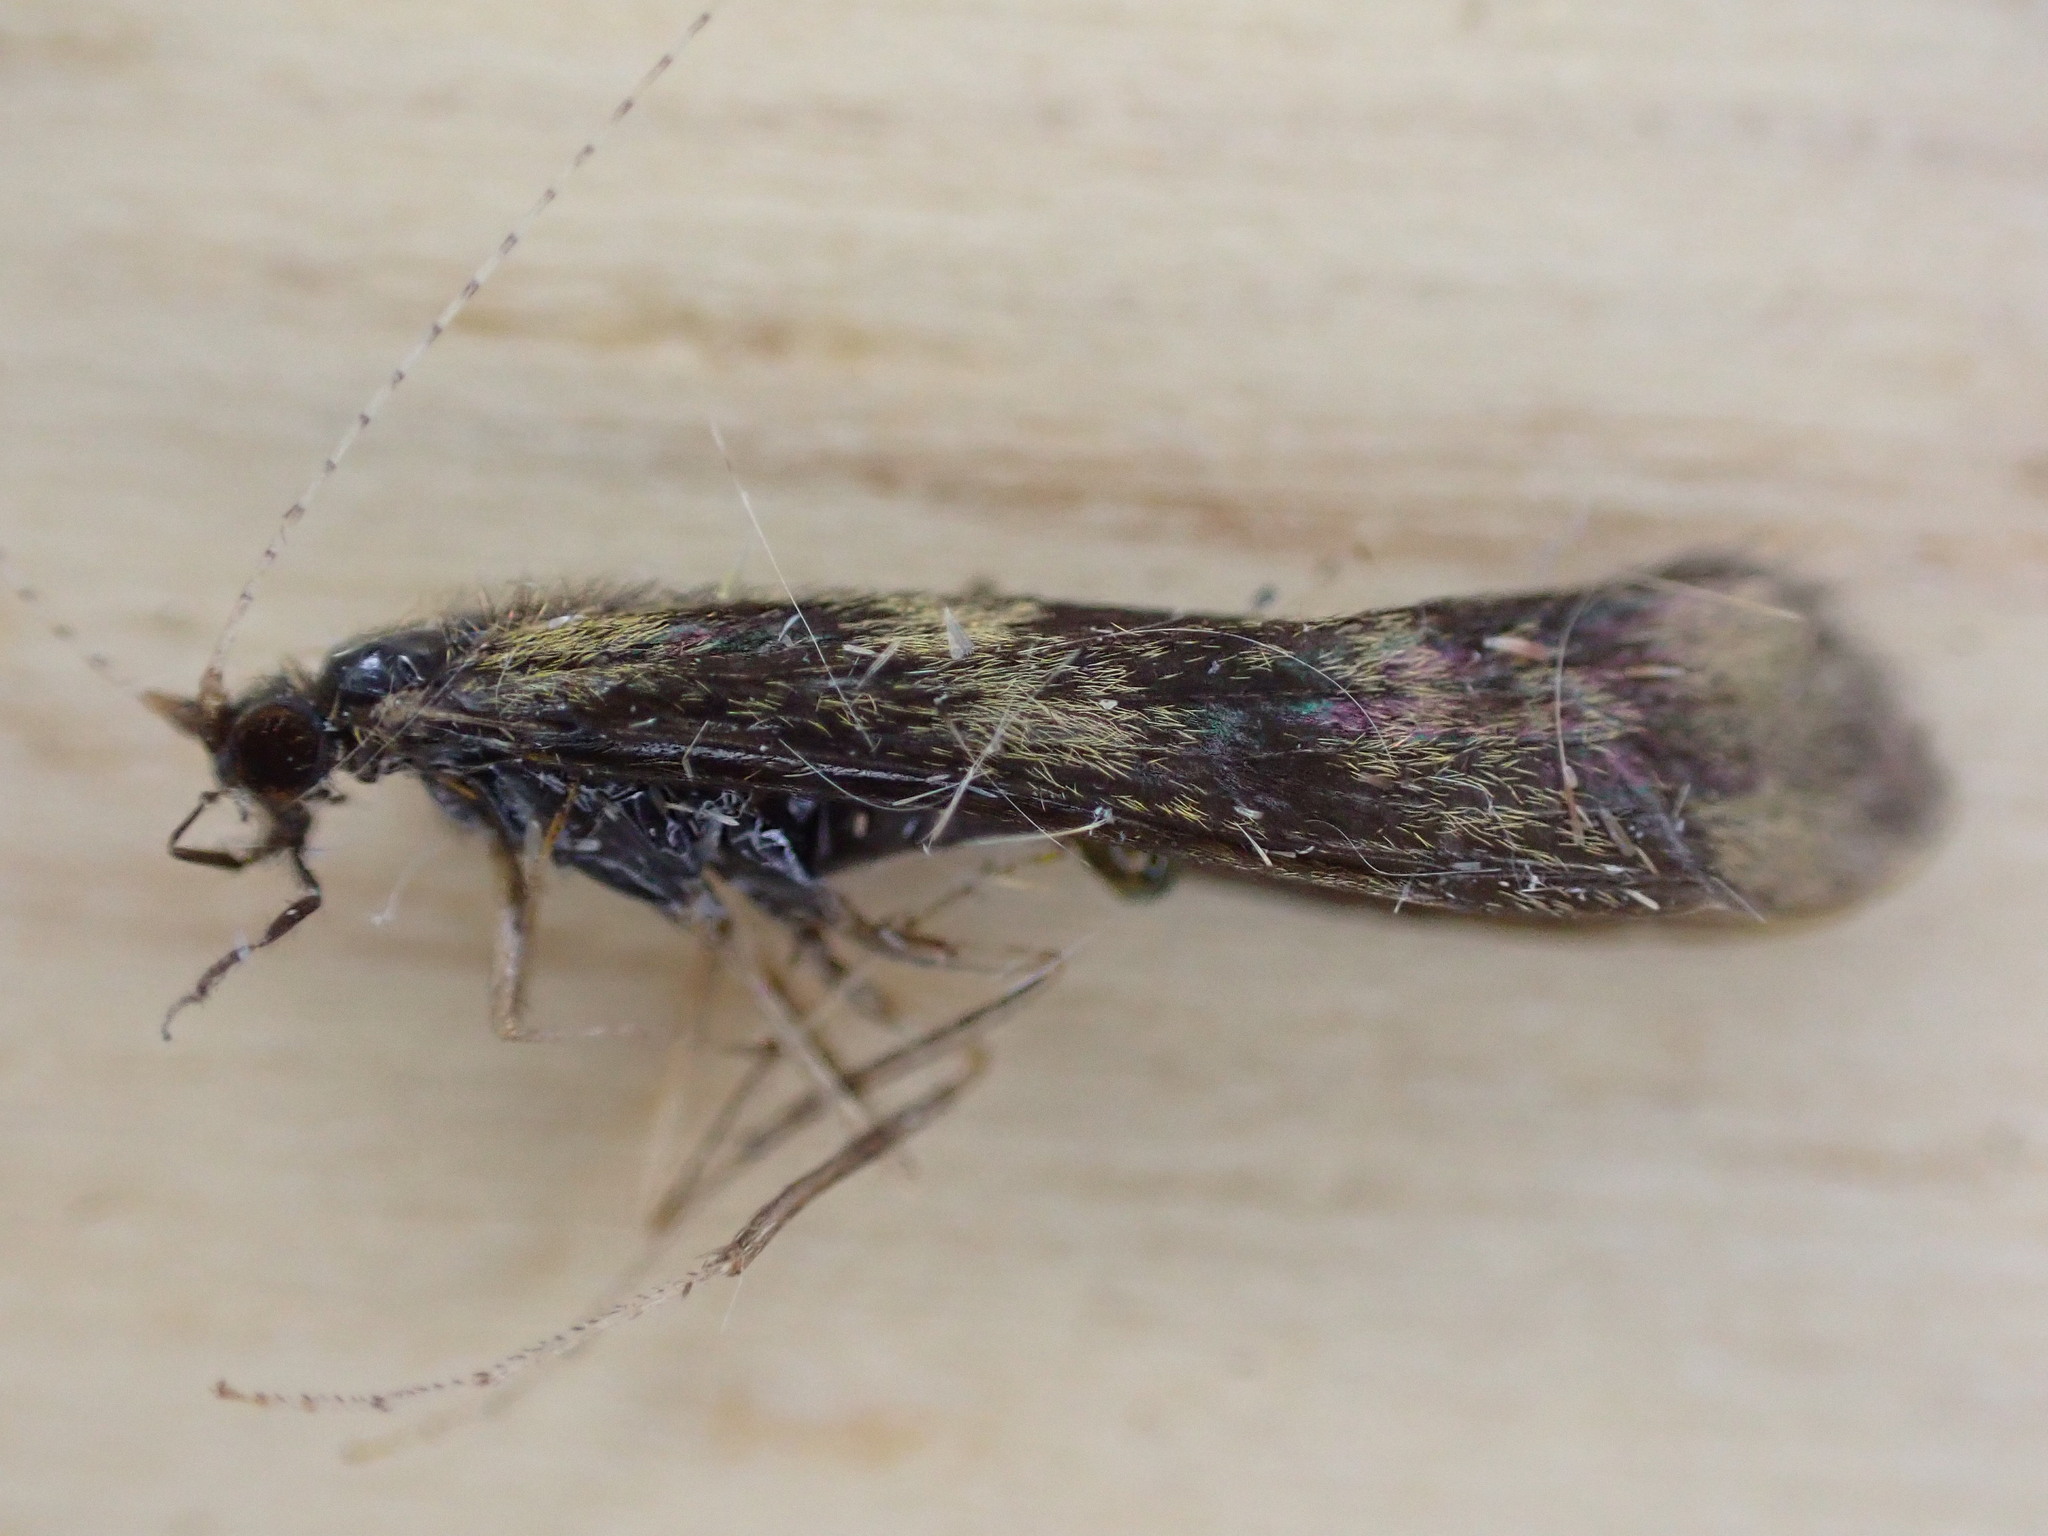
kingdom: Animalia
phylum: Arthropoda
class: Insecta
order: Trichoptera
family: Leptoceridae
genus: Mystacides
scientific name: Mystacides longicornis
